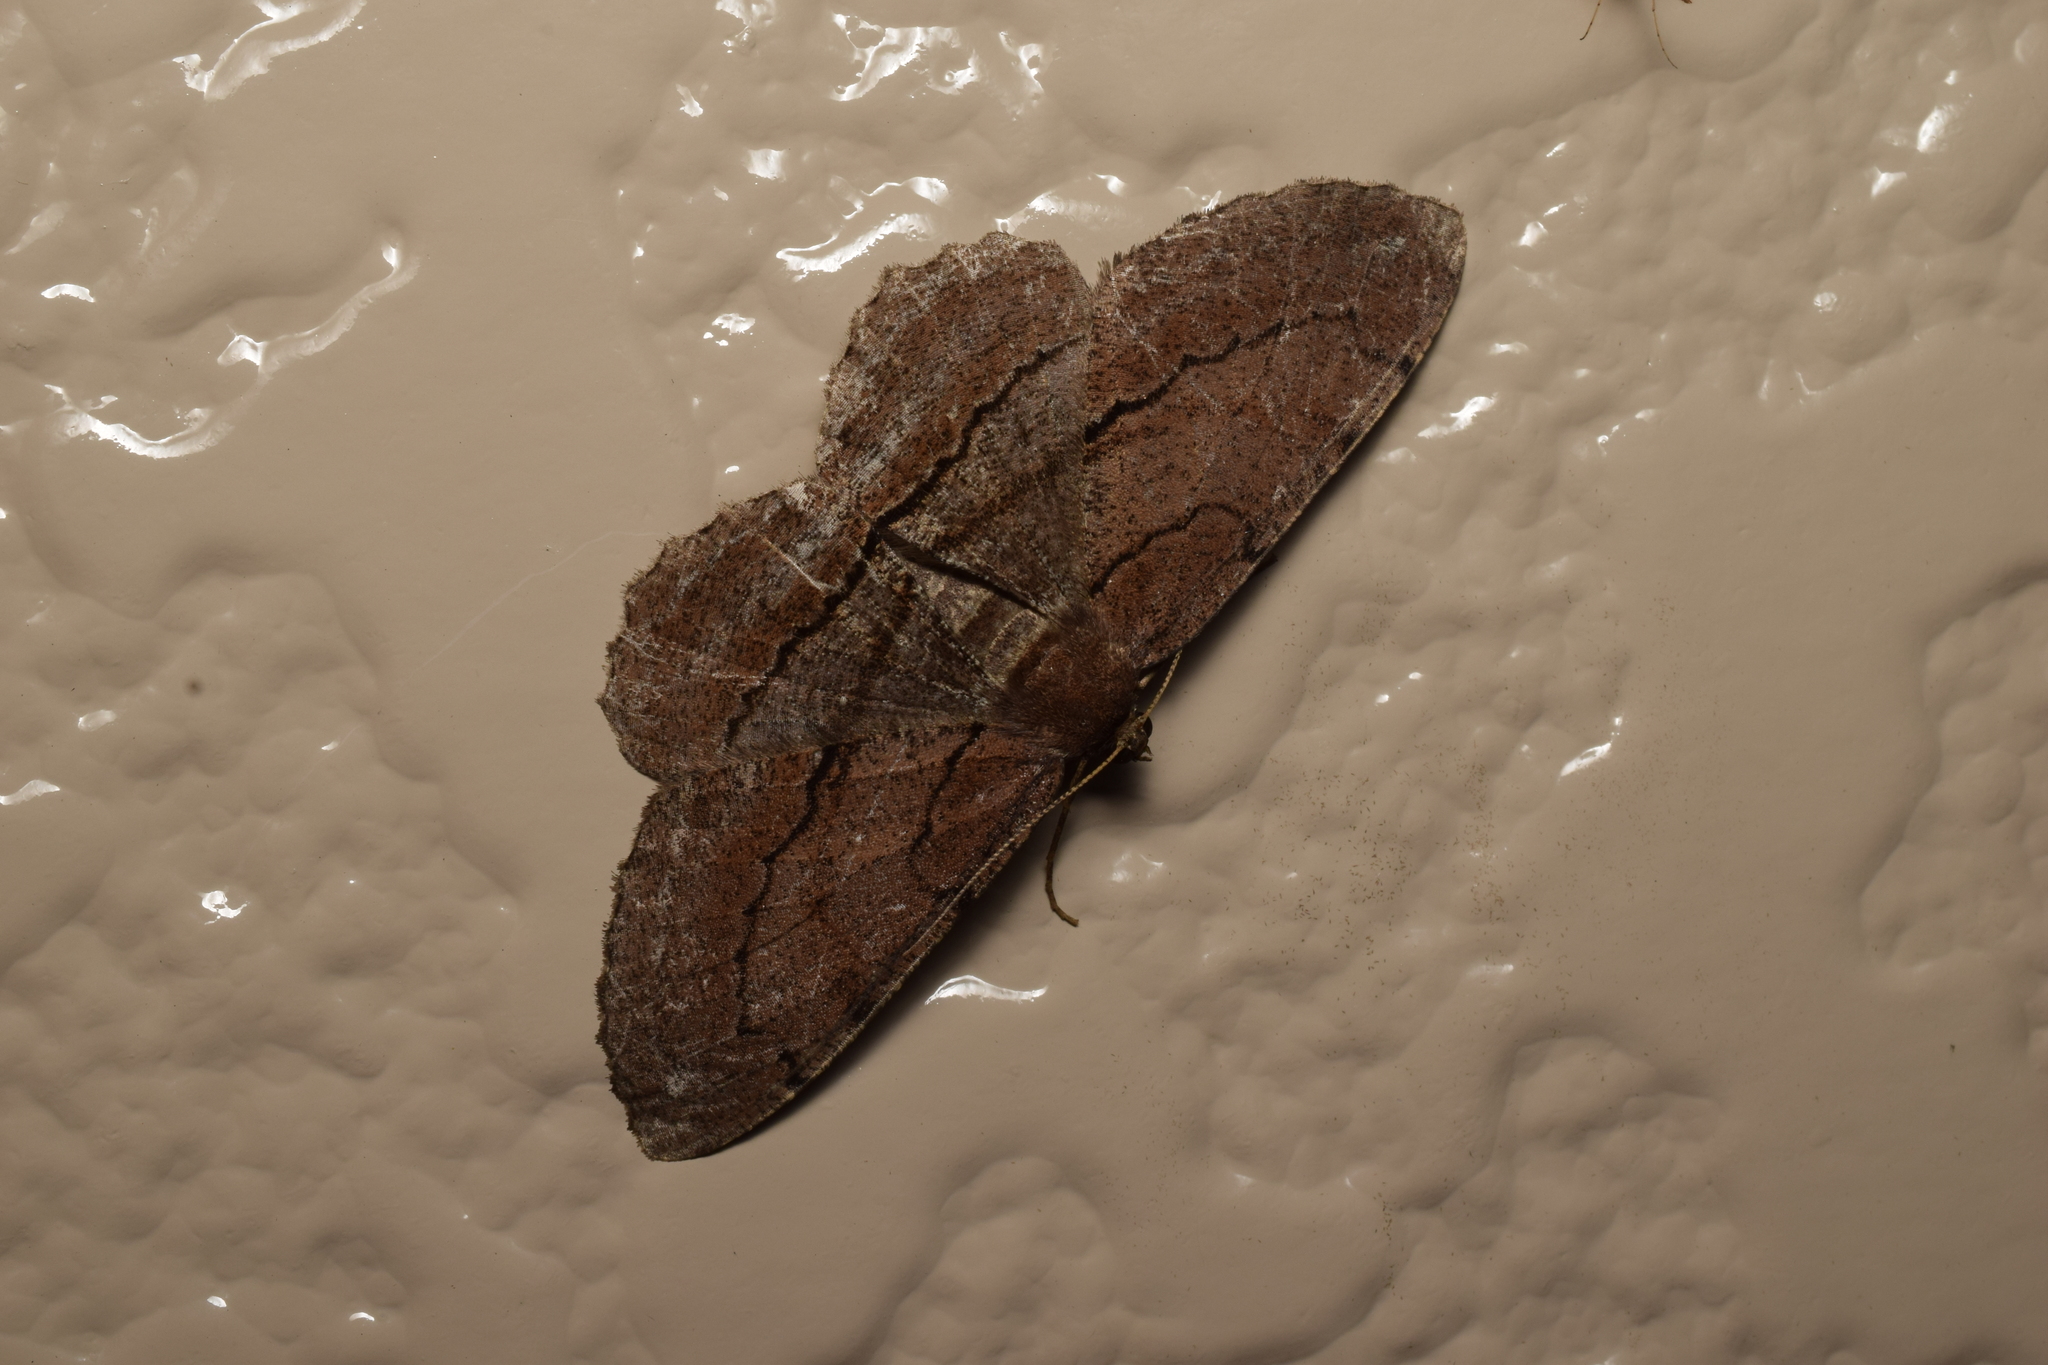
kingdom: Animalia
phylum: Arthropoda
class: Insecta
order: Lepidoptera
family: Geometridae
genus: Apocleora
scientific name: Apocleora rimosa
